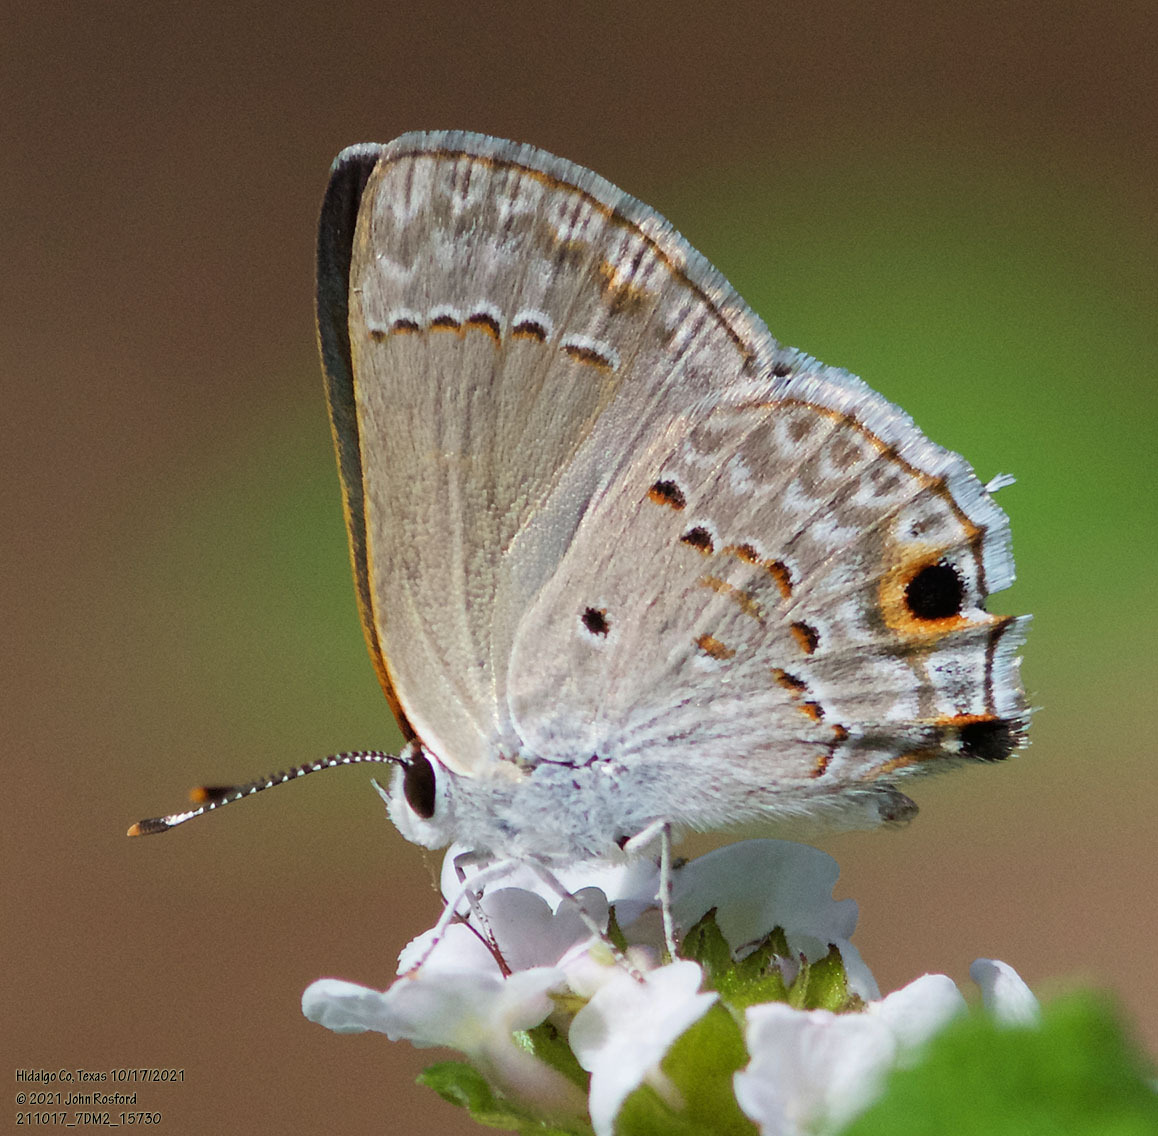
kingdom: Animalia
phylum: Arthropoda
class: Insecta
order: Lepidoptera
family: Lycaenidae
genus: Callicista
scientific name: Callicista columella
